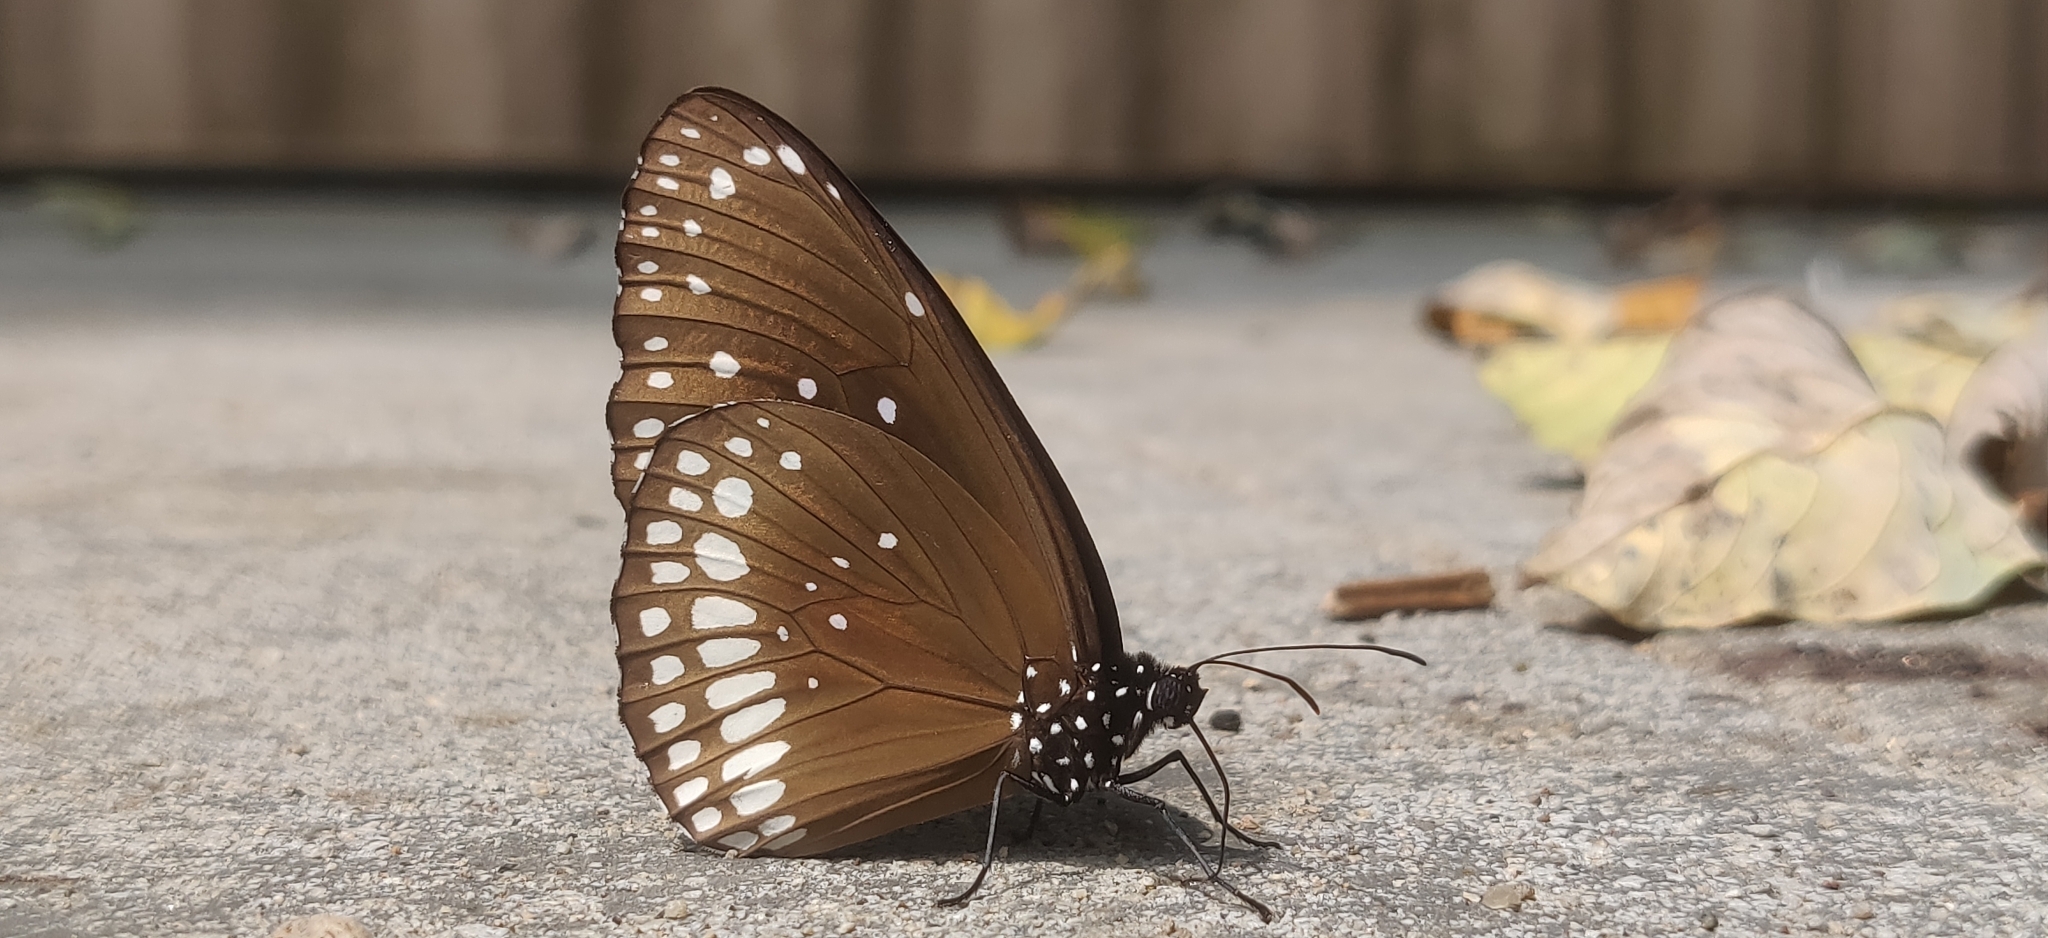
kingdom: Animalia
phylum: Arthropoda
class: Insecta
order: Lepidoptera
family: Nymphalidae
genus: Euploea
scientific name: Euploea core
